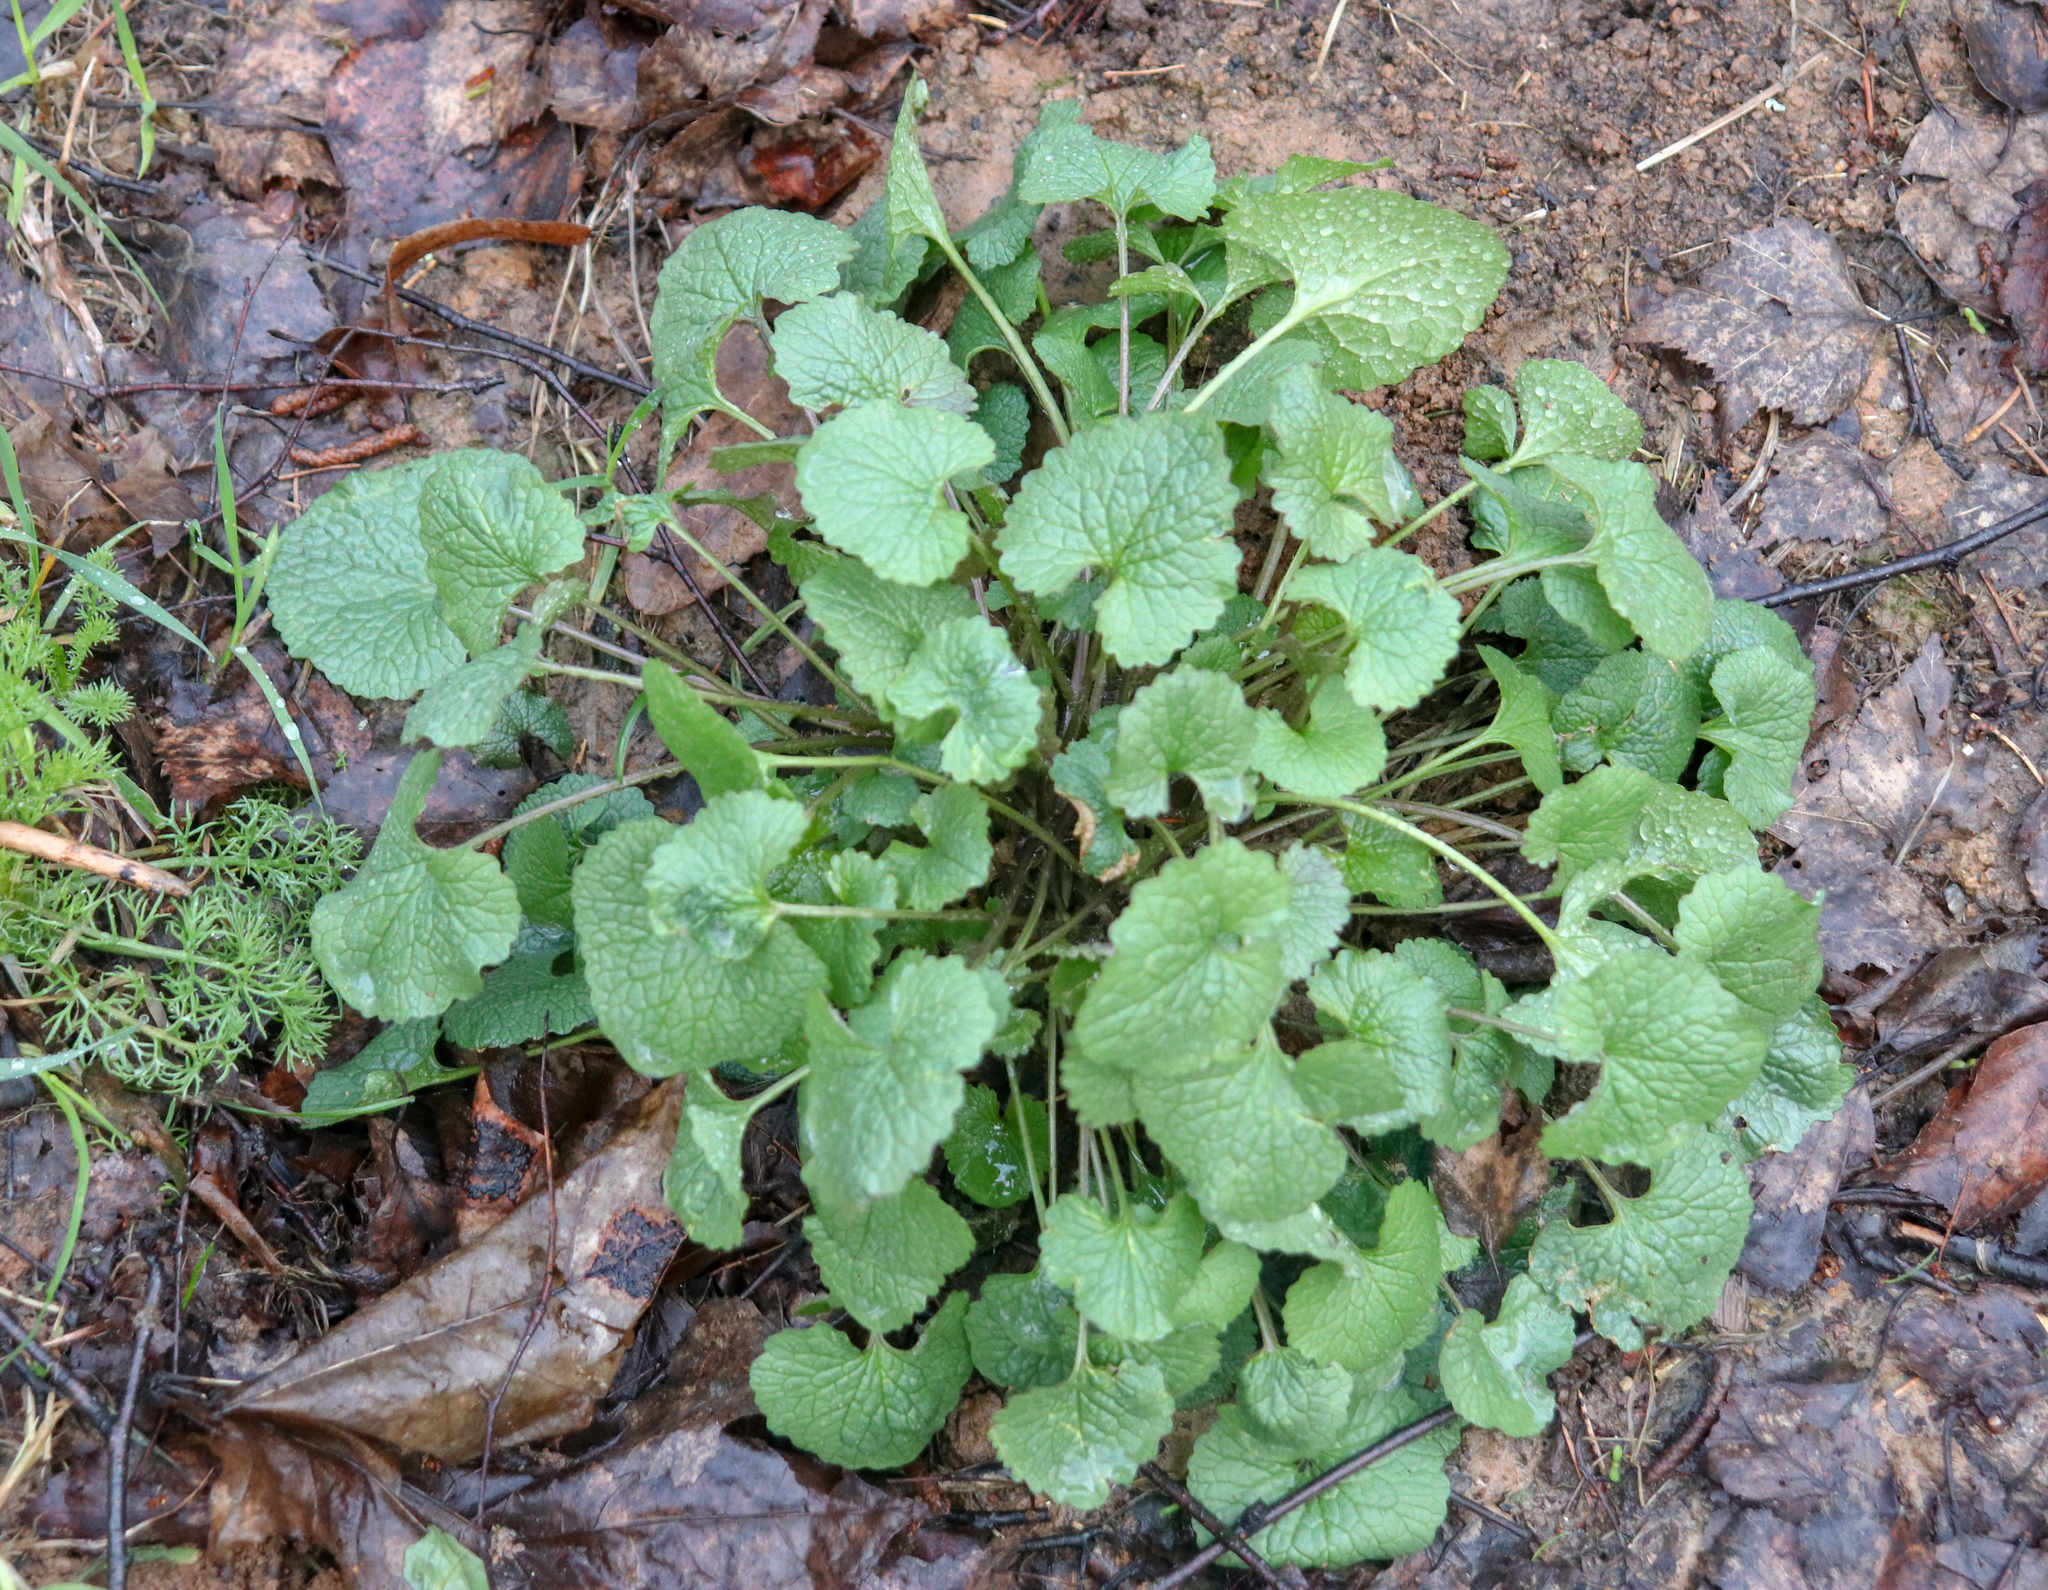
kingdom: Plantae
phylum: Tracheophyta
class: Magnoliopsida
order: Brassicales
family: Brassicaceae
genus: Alliaria
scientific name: Alliaria petiolata
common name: Garlic mustard
